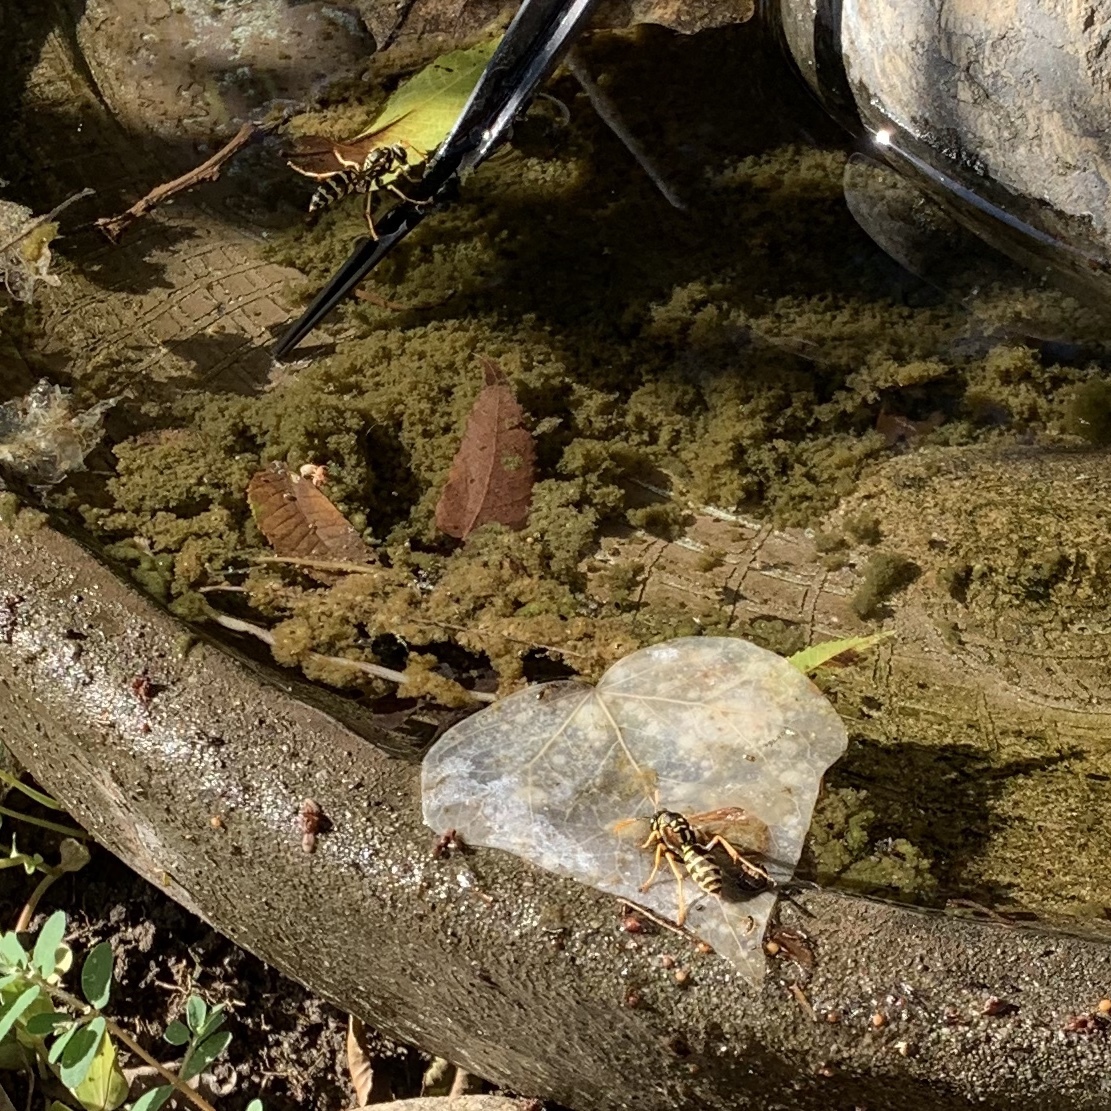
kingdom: Animalia
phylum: Arthropoda
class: Insecta
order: Hymenoptera
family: Eumenidae
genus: Polistes
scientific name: Polistes dominula
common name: Paper wasp
